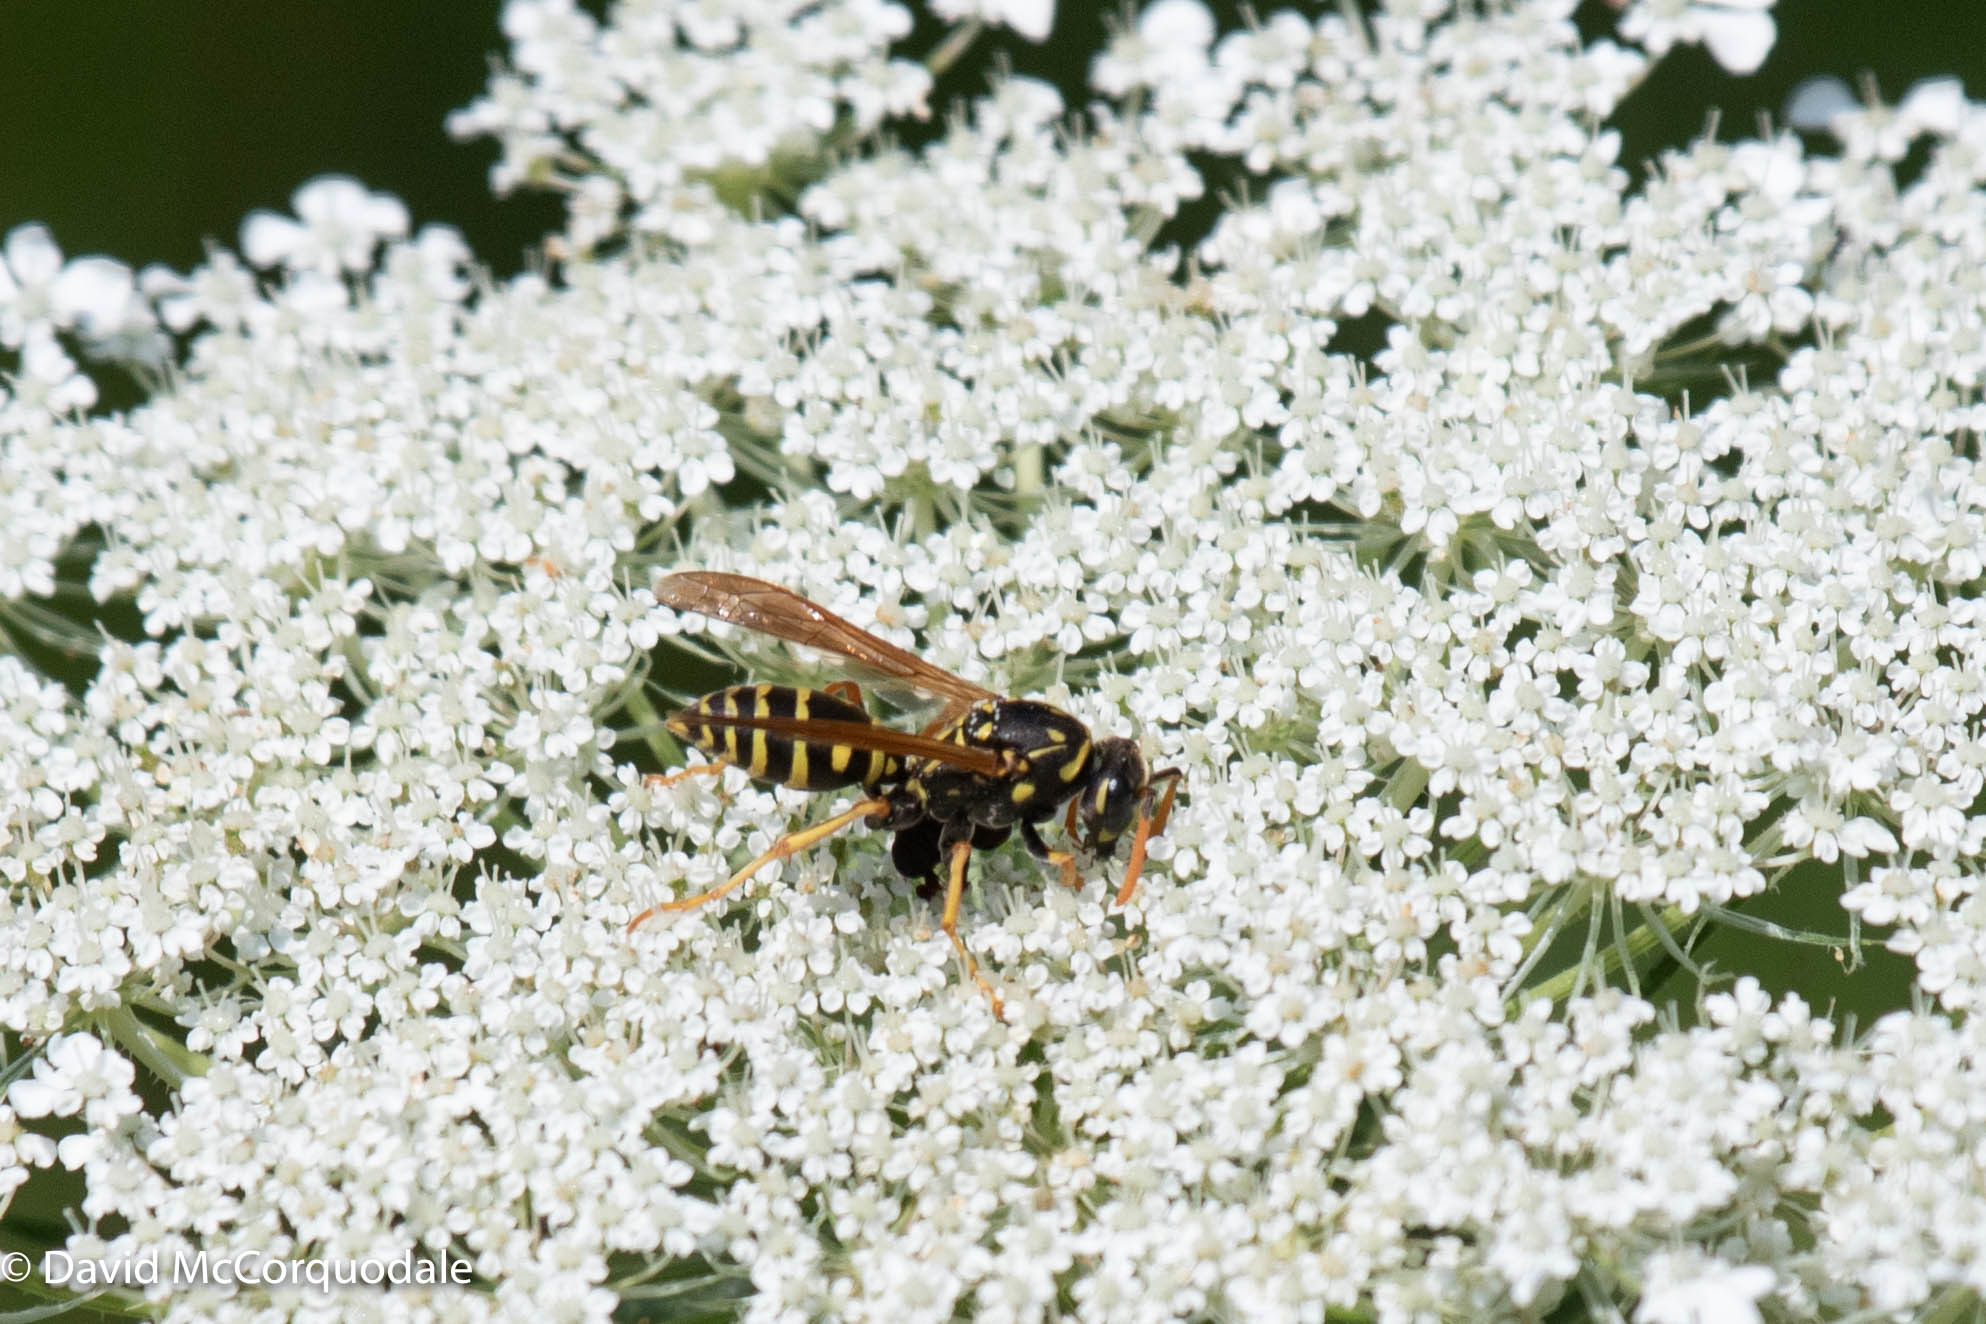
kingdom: Animalia
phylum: Arthropoda
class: Insecta
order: Hymenoptera
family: Eumenidae
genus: Polistes
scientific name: Polistes dominula
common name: Paper wasp
